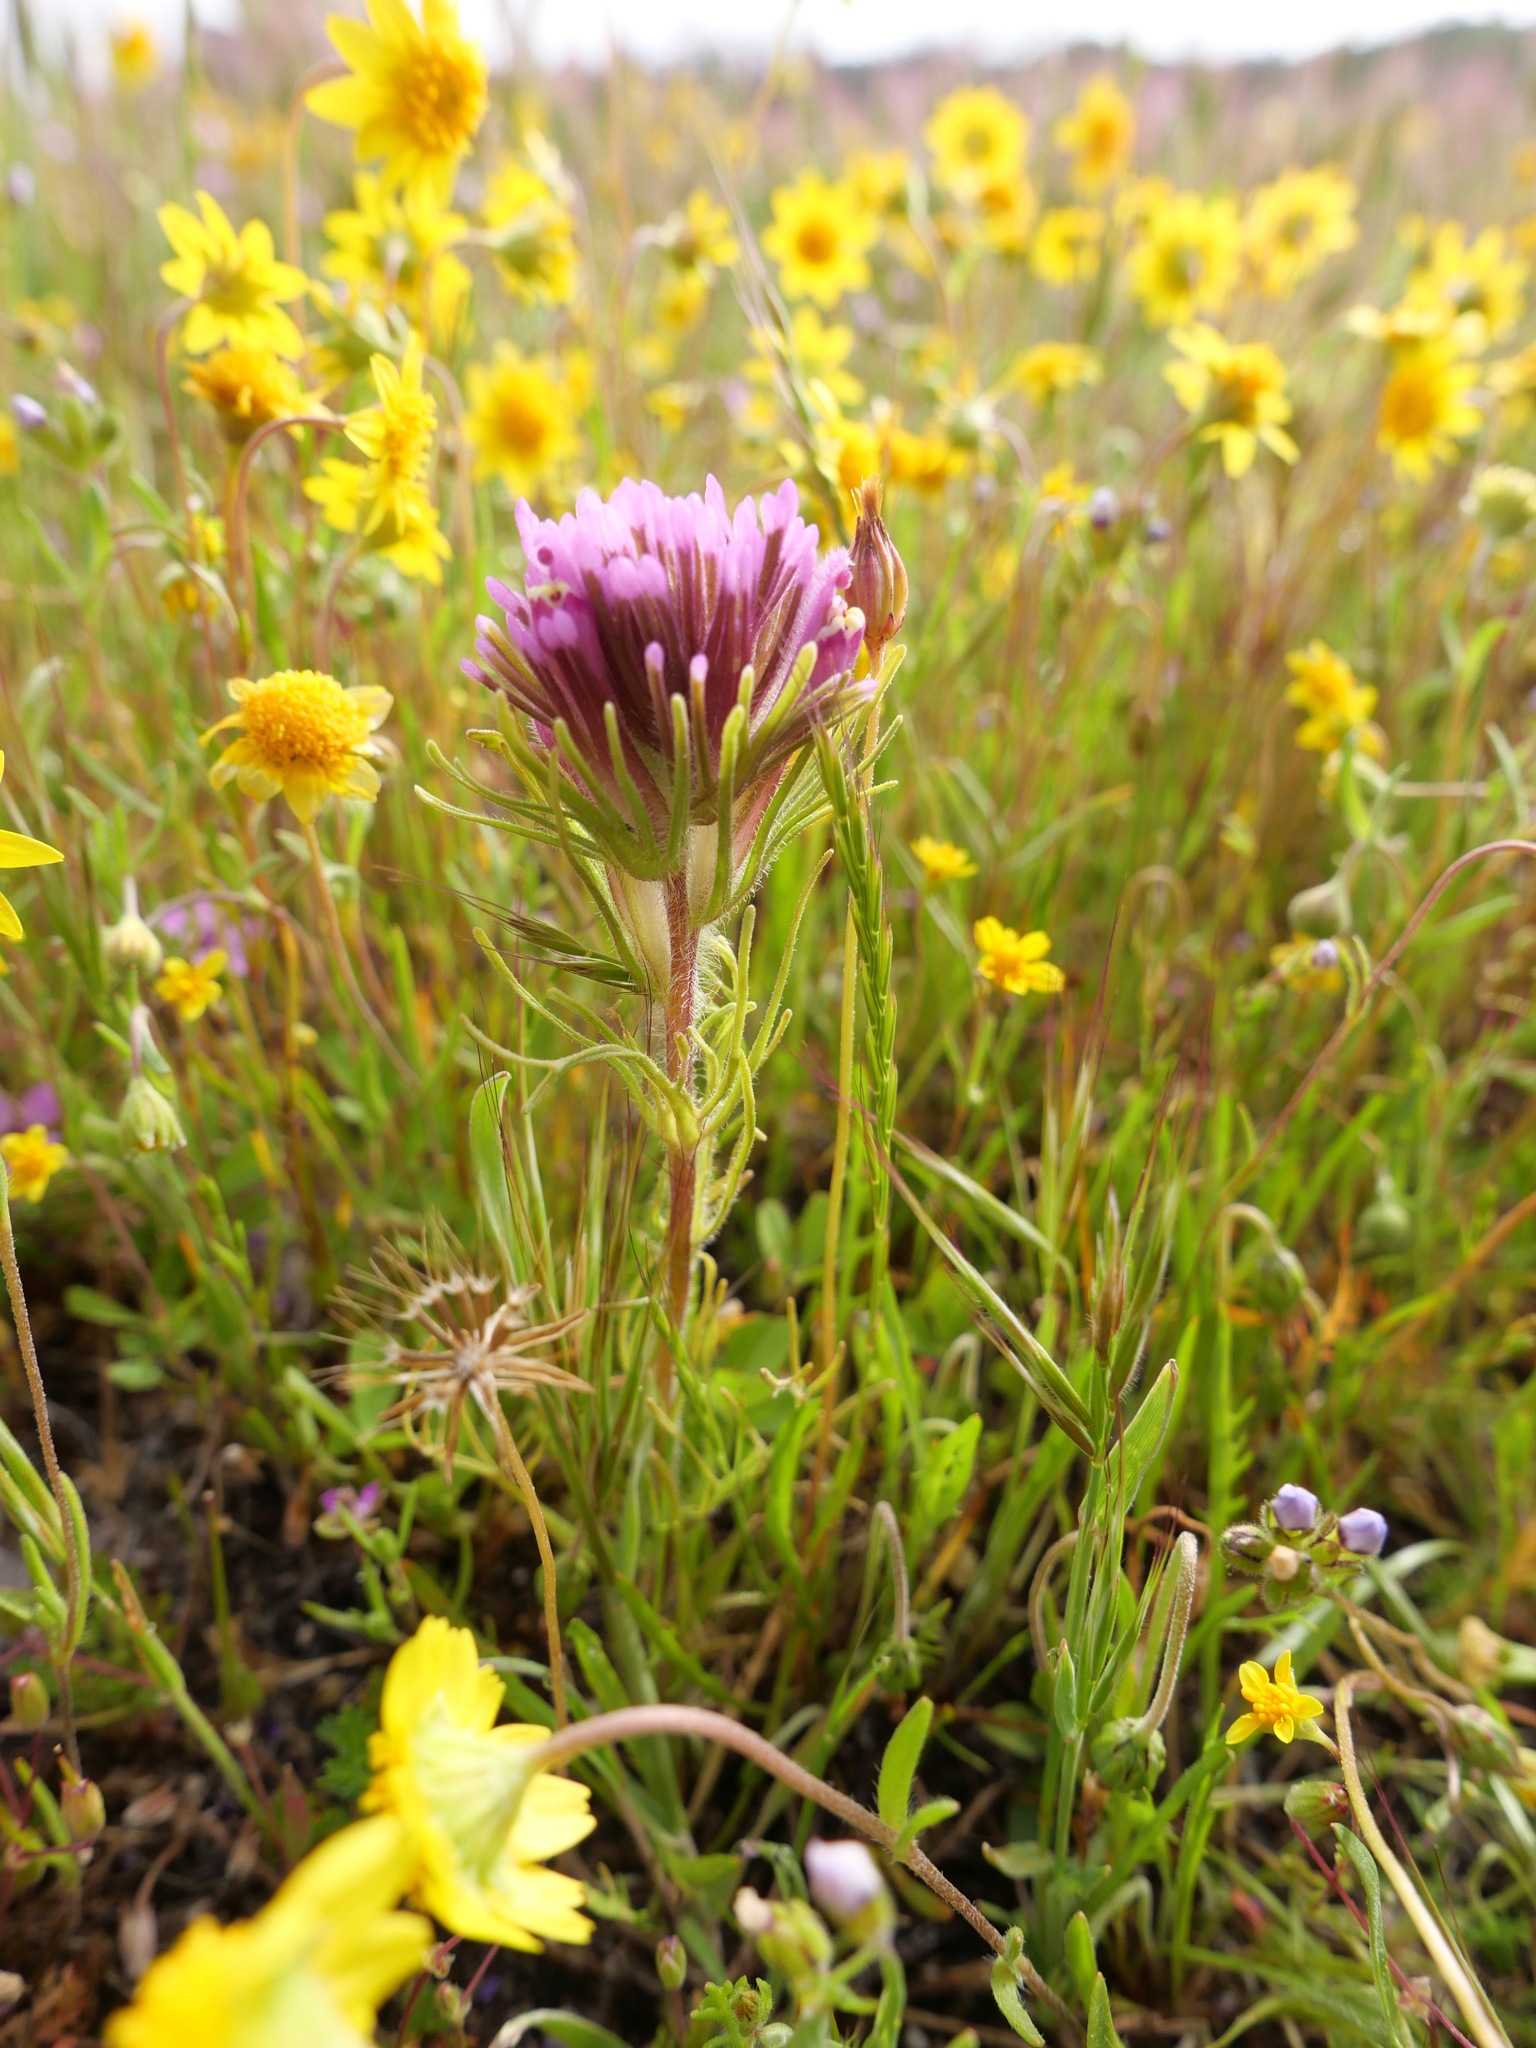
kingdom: Plantae
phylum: Tracheophyta
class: Magnoliopsida
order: Lamiales
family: Orobanchaceae
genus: Castilleja
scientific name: Castilleja exserta
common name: Purple owl-clover
